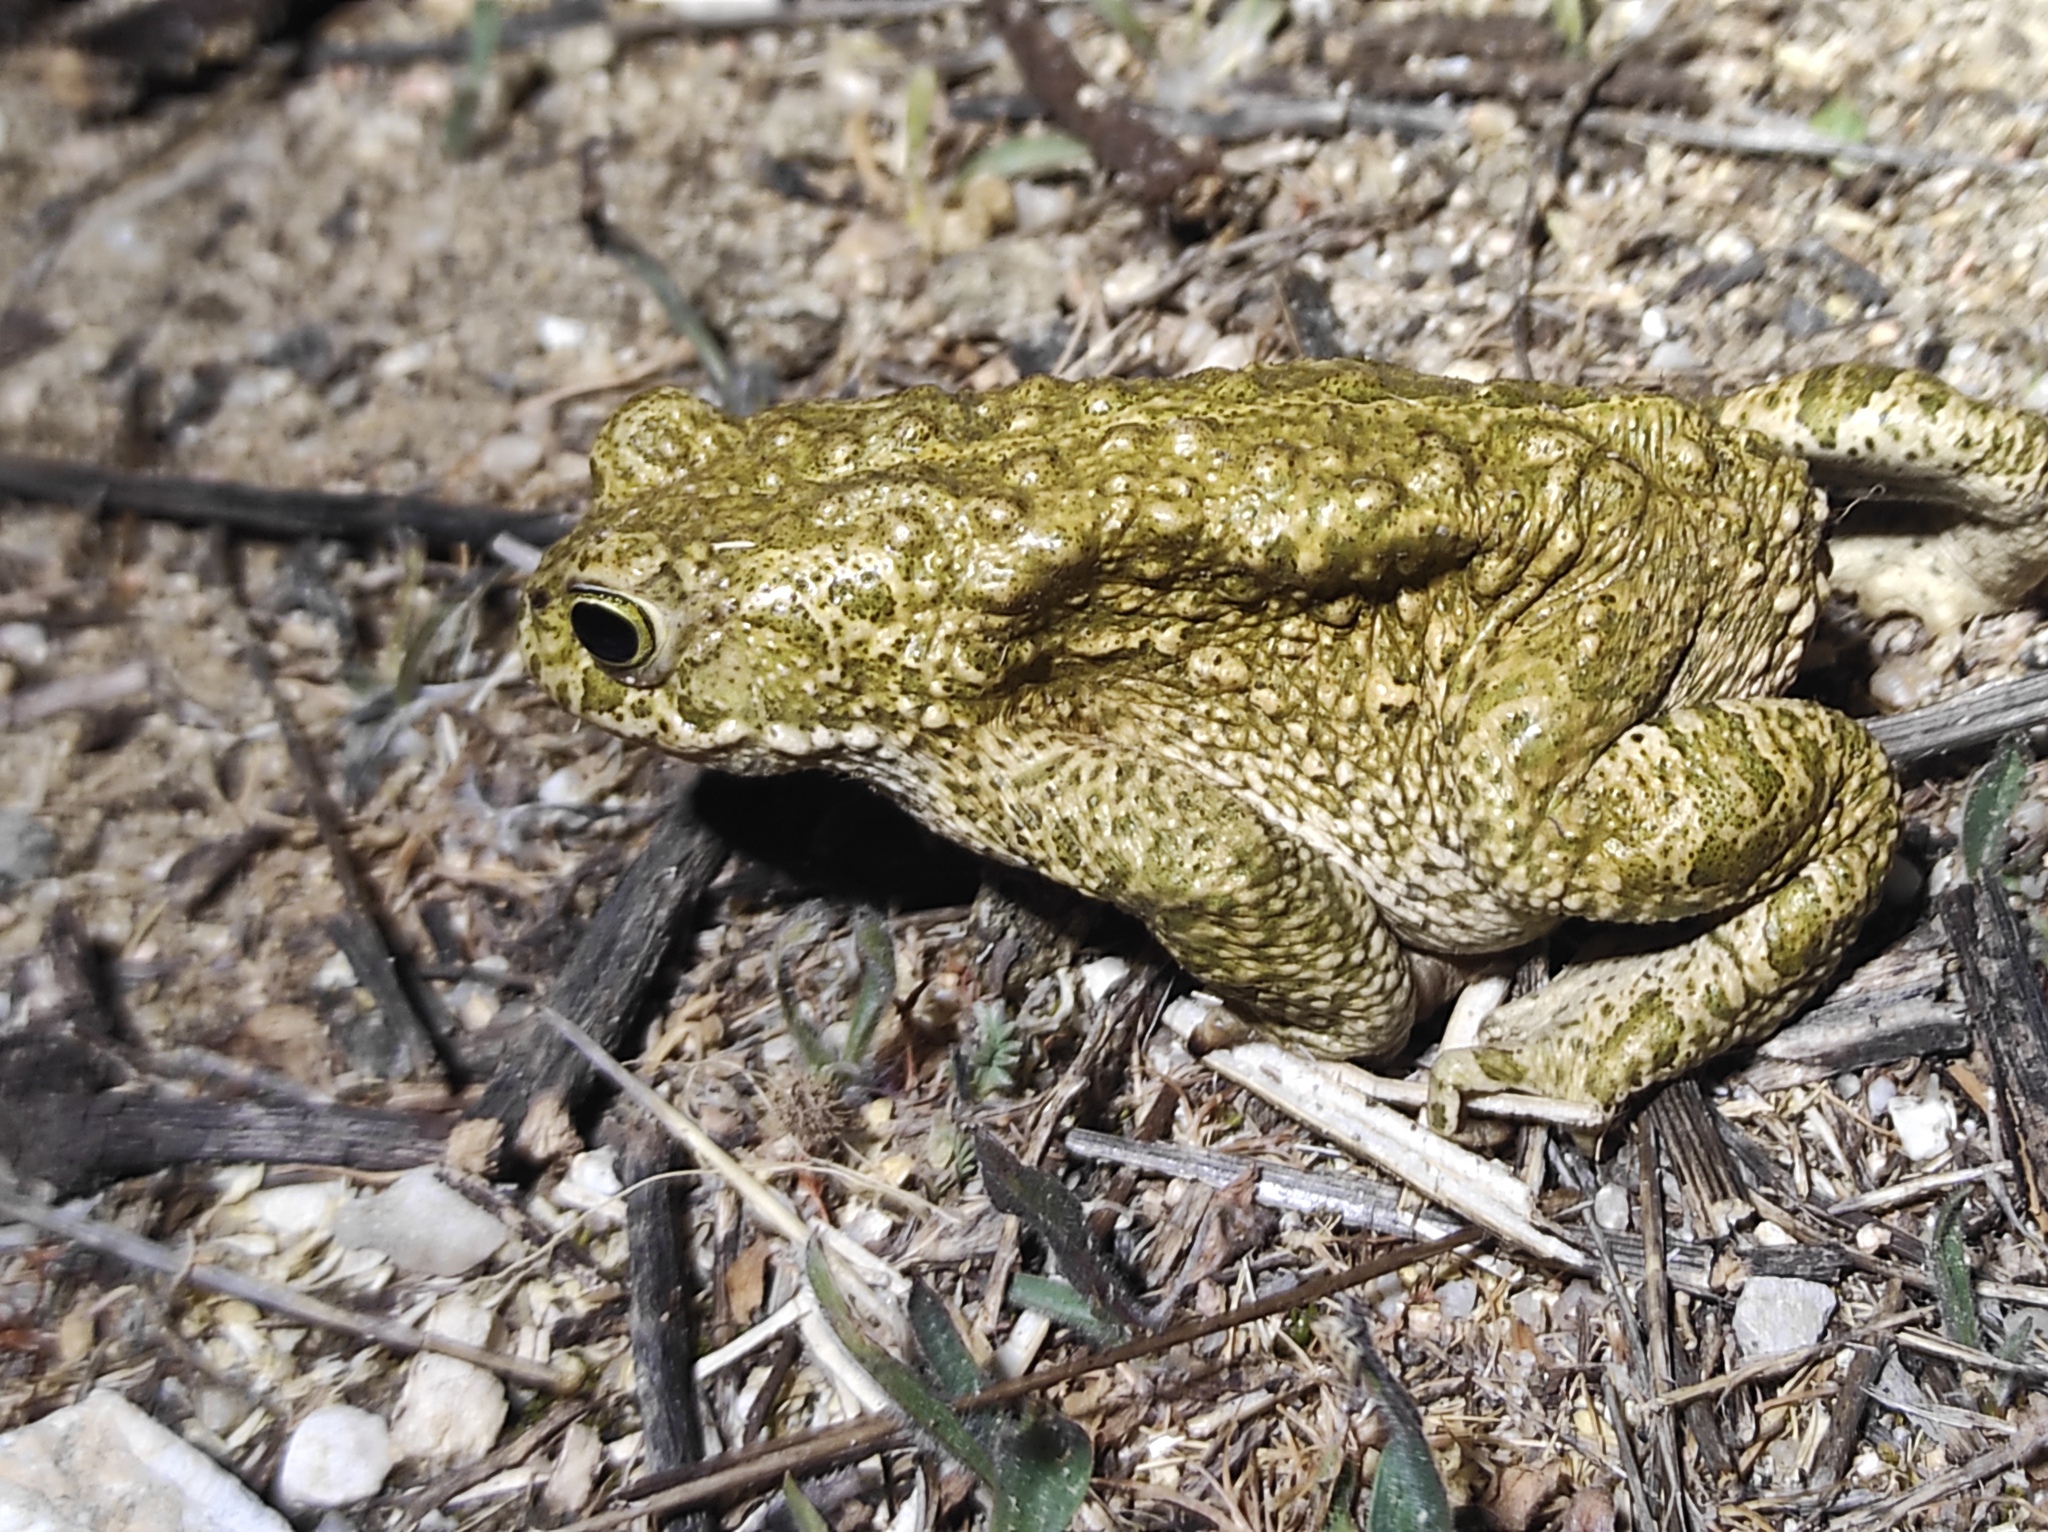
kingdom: Animalia
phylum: Chordata
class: Amphibia
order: Anura
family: Bufonidae
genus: Epidalea
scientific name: Epidalea calamita
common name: Natterjack toad
